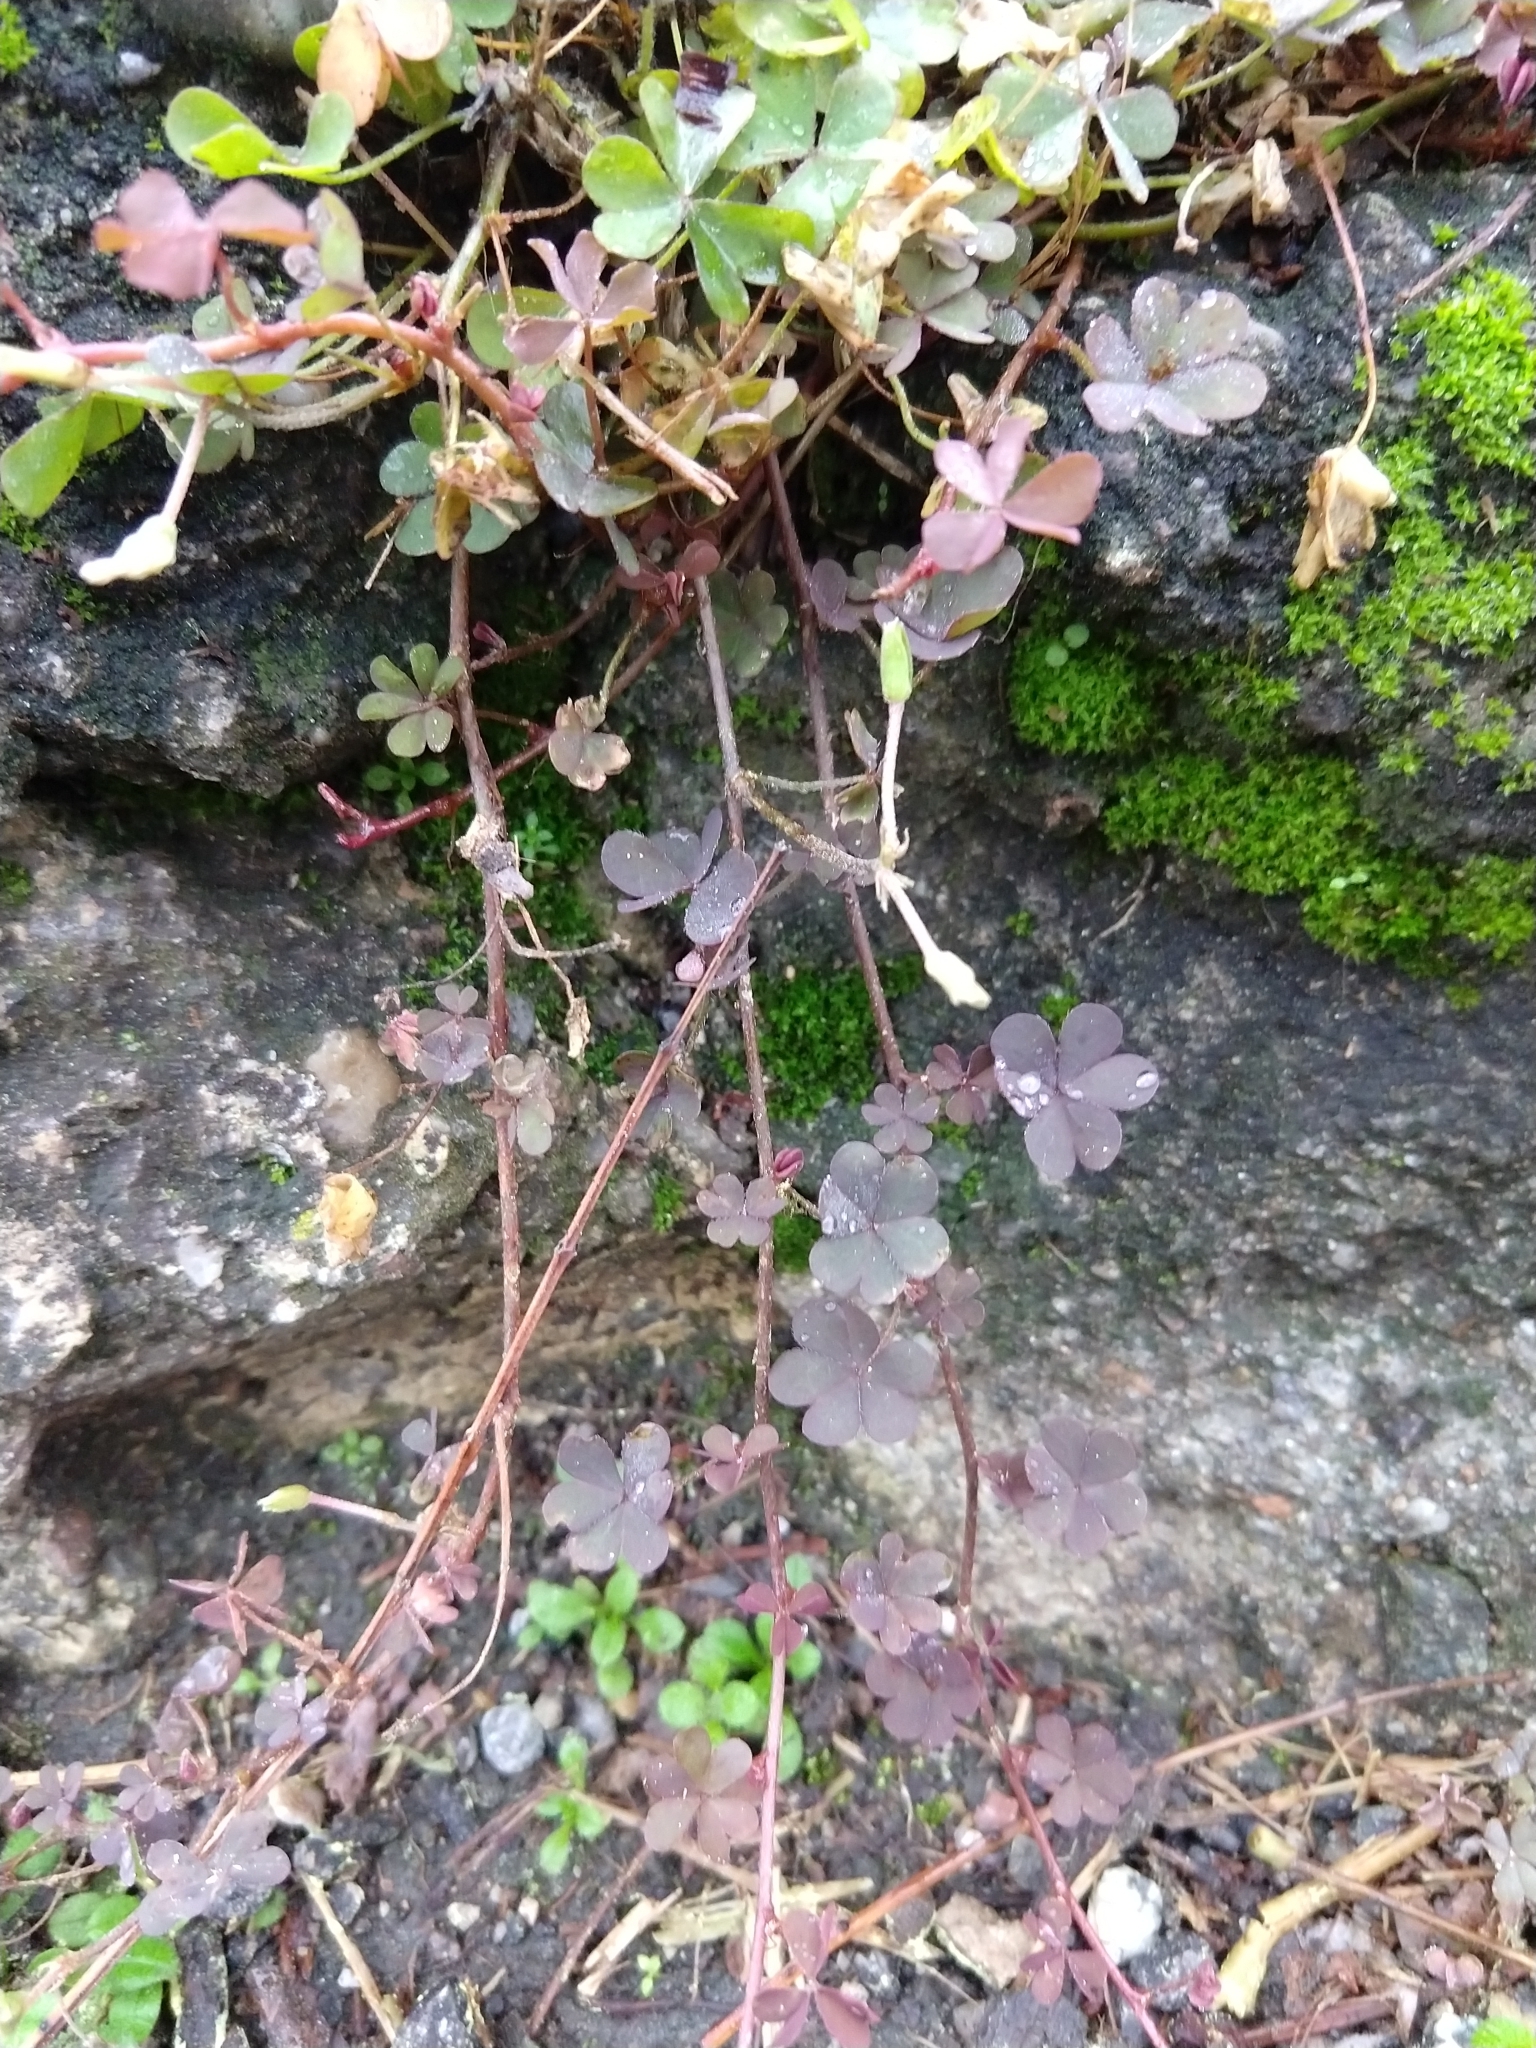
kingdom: Plantae
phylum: Tracheophyta
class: Magnoliopsida
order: Oxalidales
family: Oxalidaceae
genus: Oxalis
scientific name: Oxalis corniculata
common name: Procumbent yellow-sorrel
